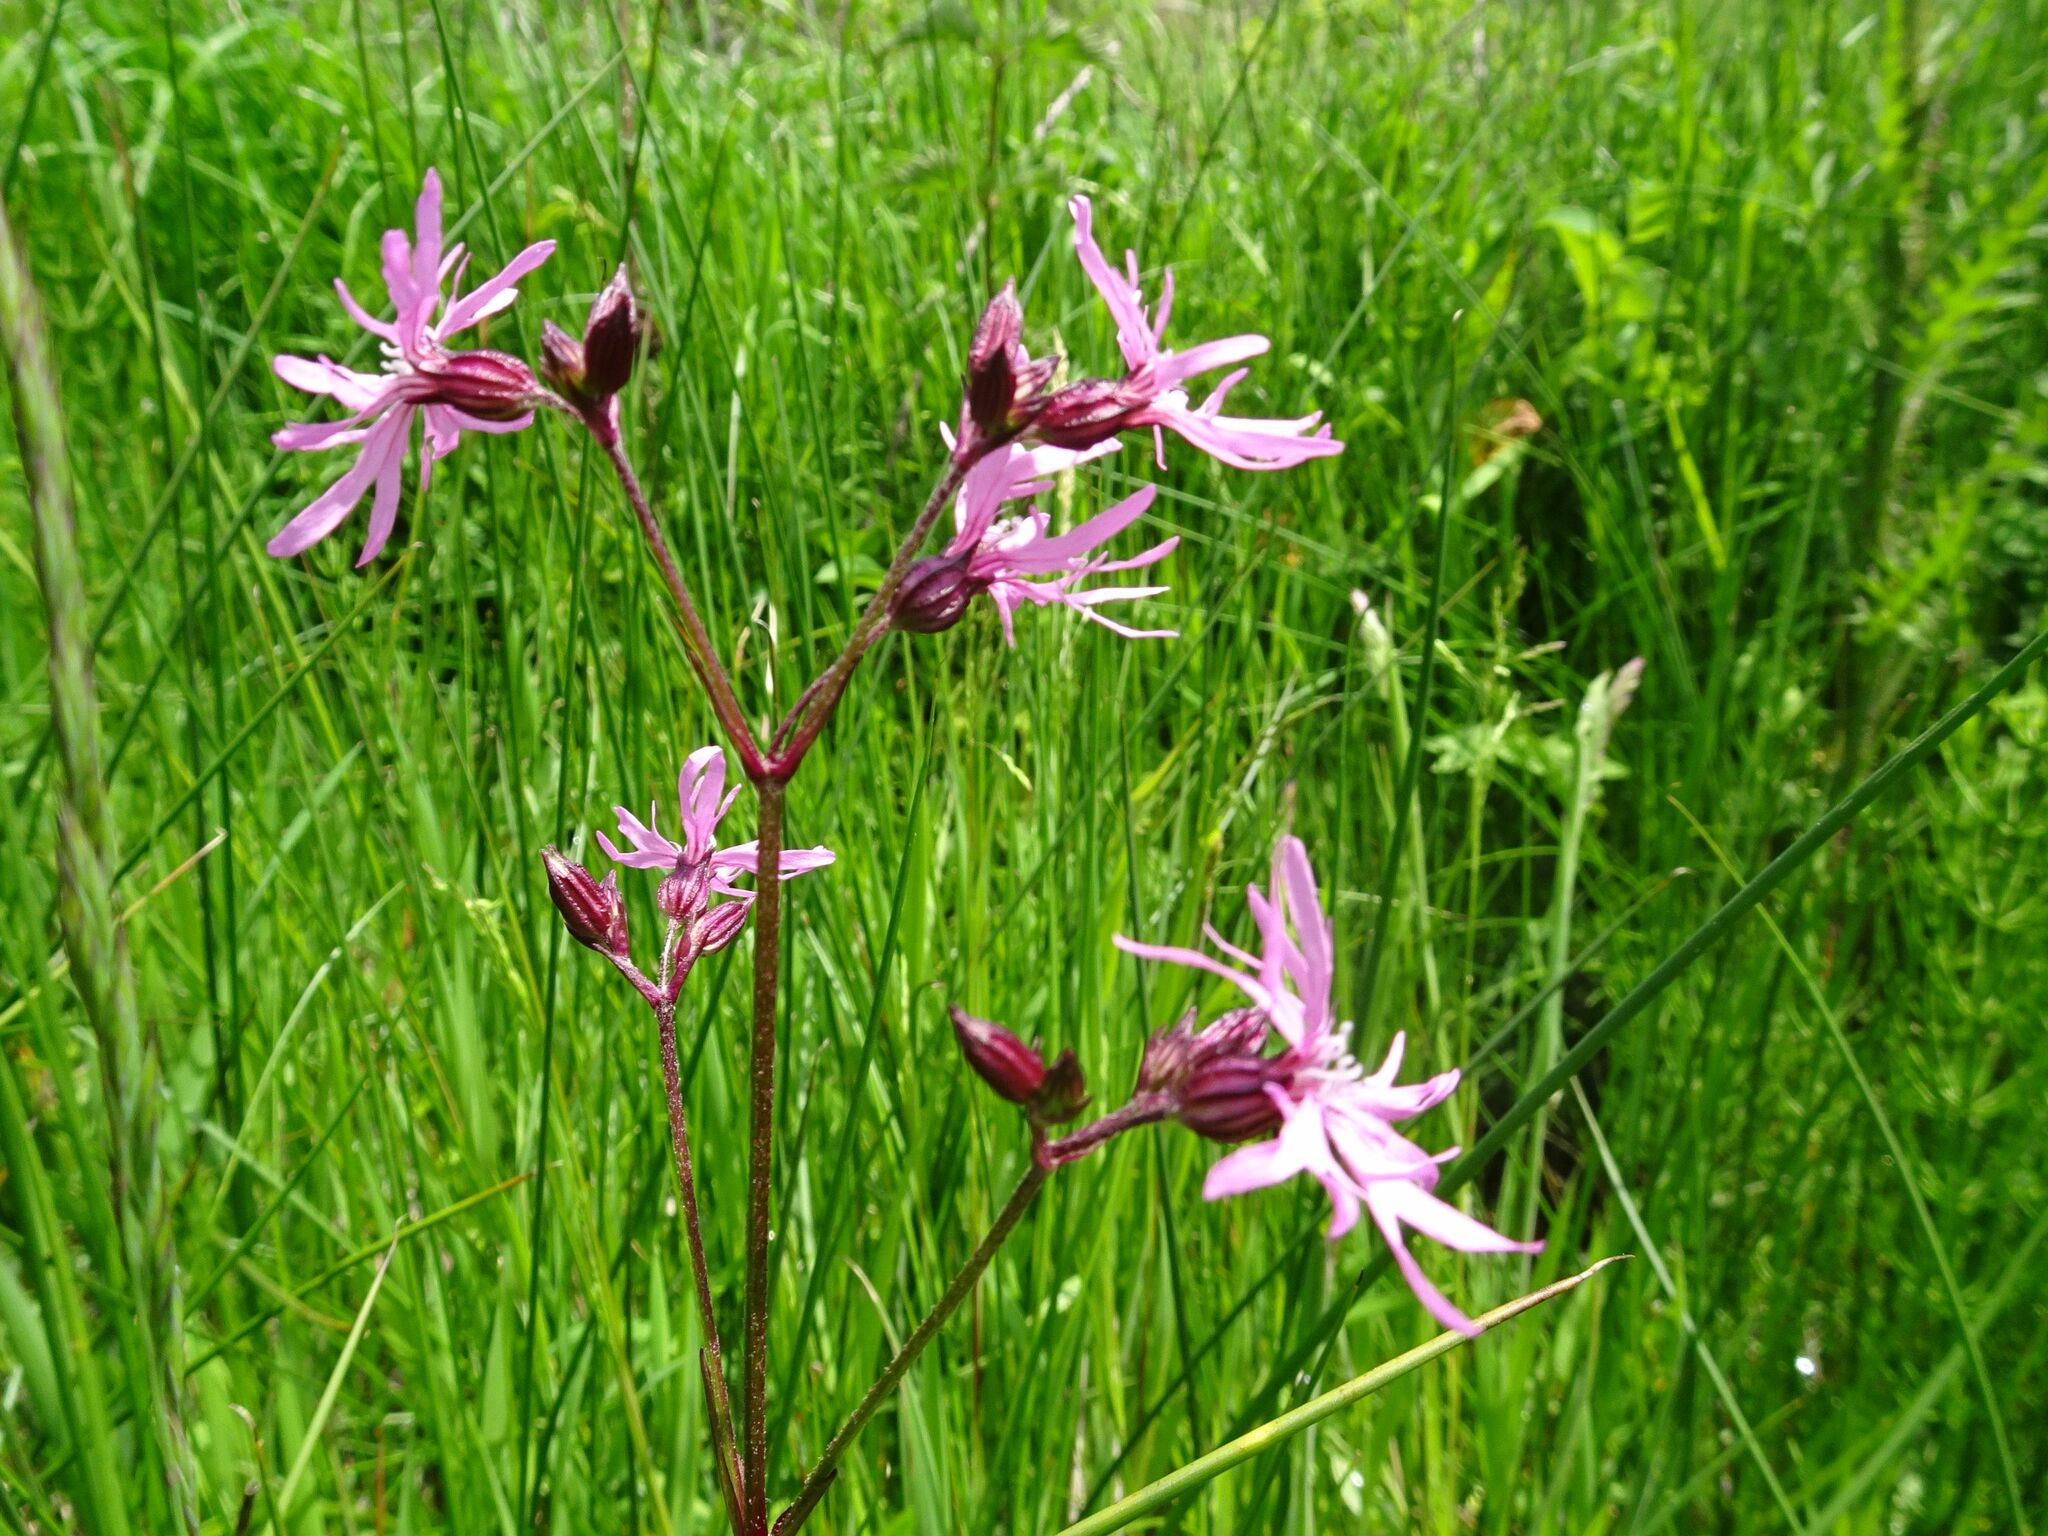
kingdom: Plantae
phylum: Tracheophyta
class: Magnoliopsida
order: Caryophyllales
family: Caryophyllaceae
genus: Silene
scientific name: Silene flos-cuculi
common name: Ragged-robin
